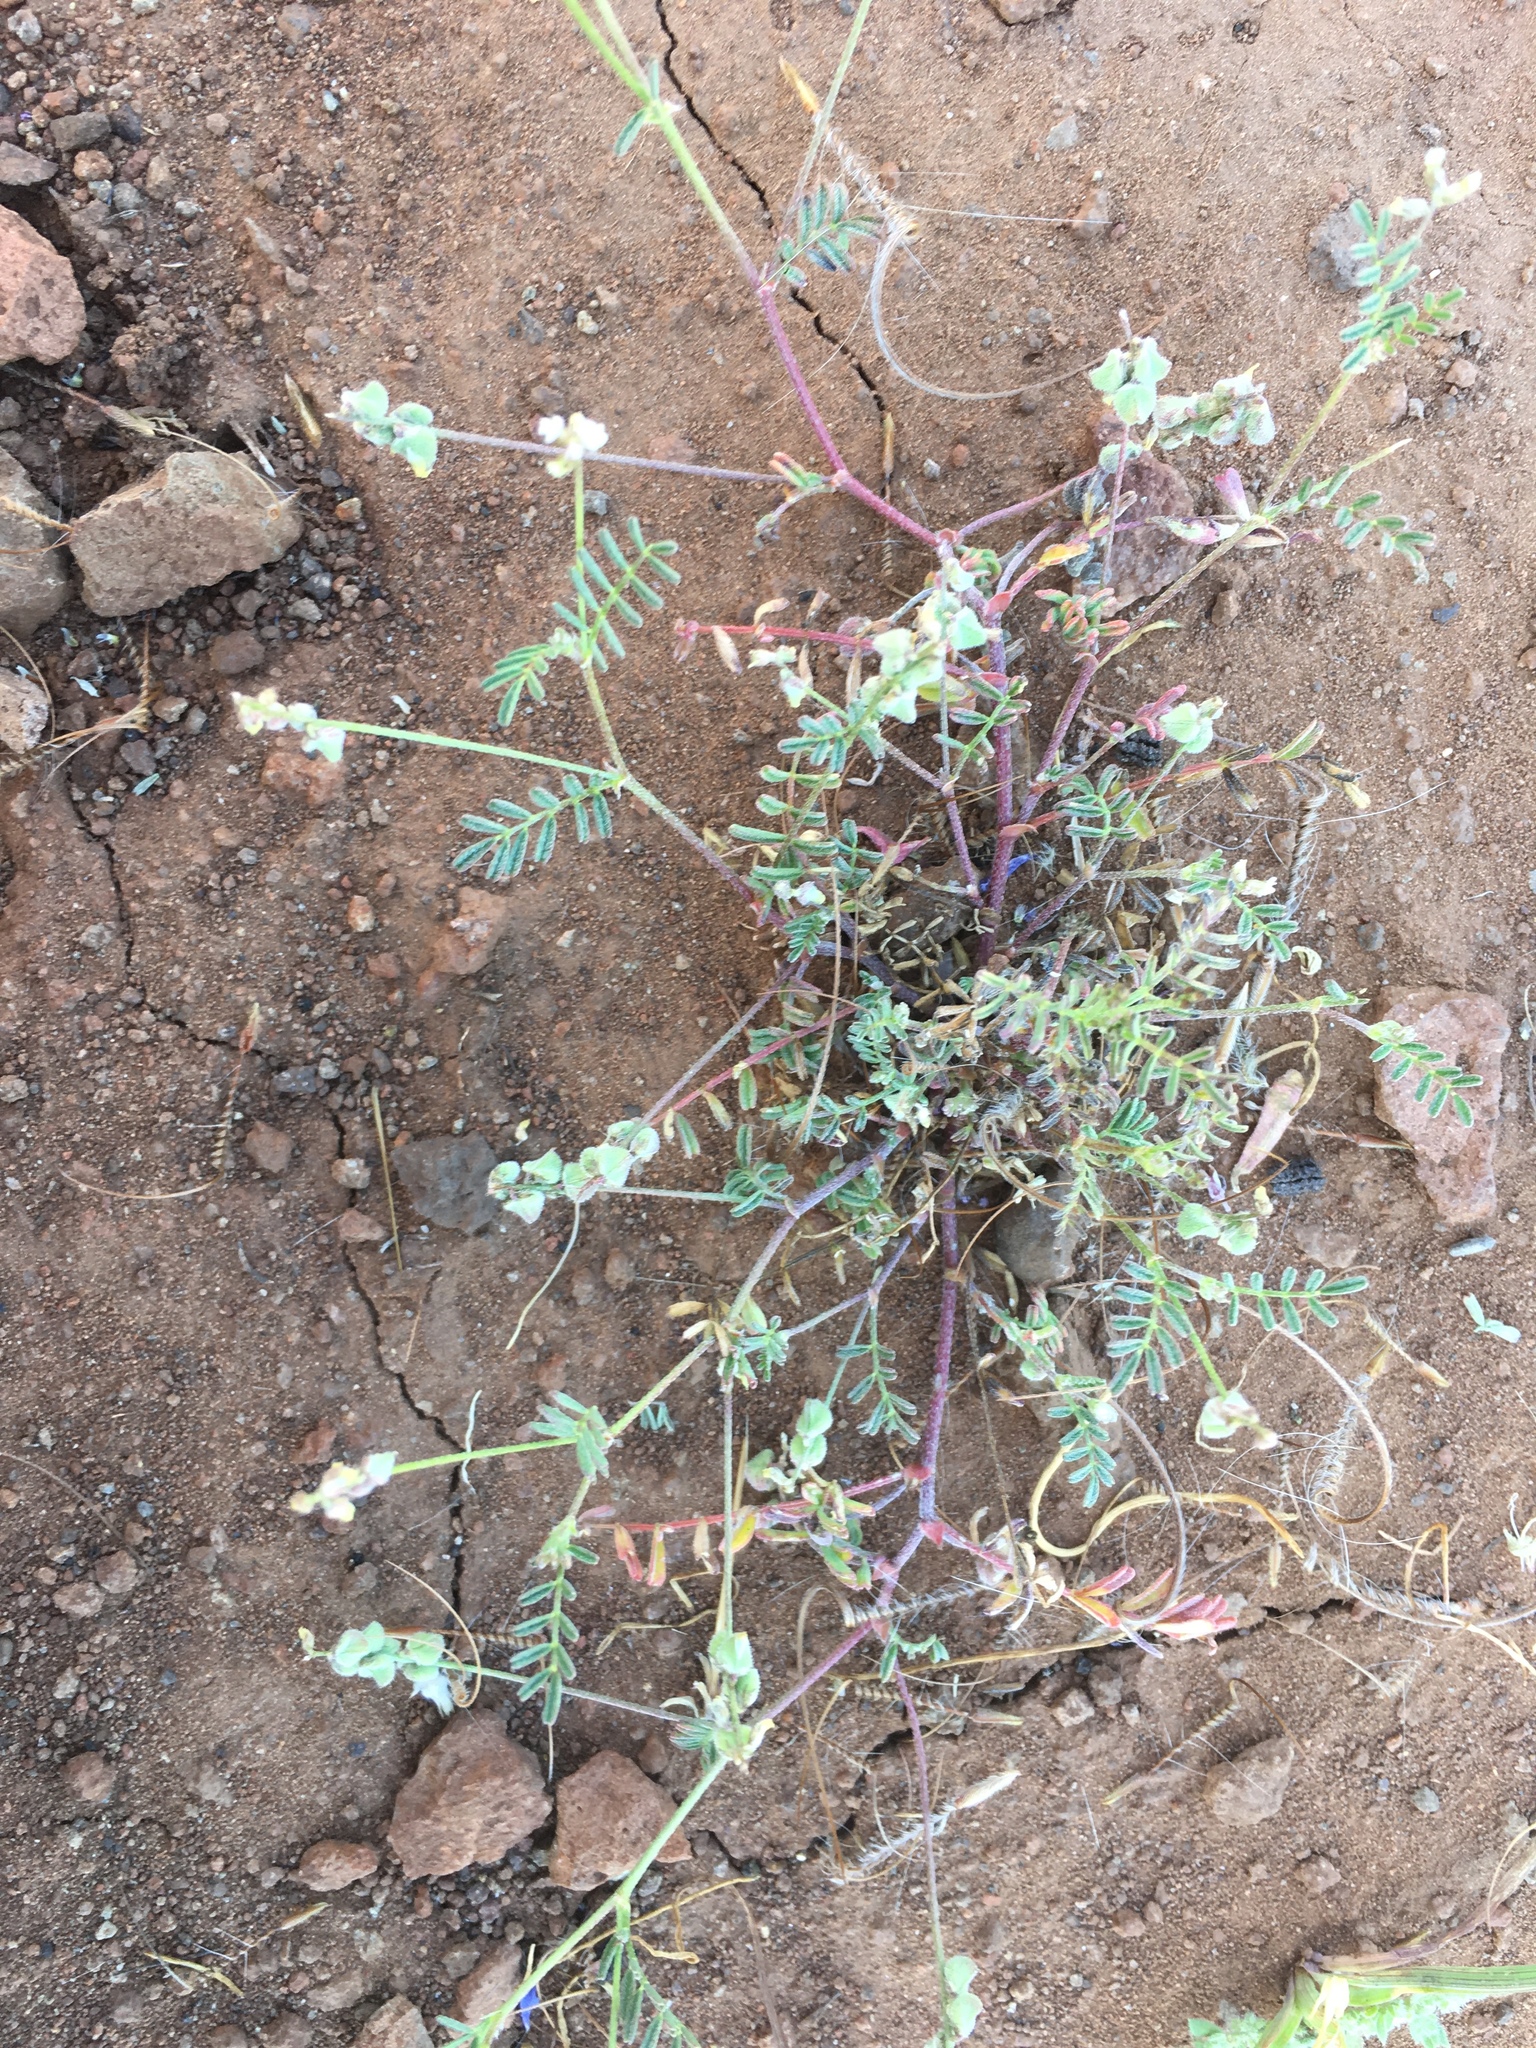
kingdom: Plantae
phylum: Tracheophyta
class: Magnoliopsida
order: Fabales
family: Fabaceae
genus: Astragalus
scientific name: Astragalus gambelianus
